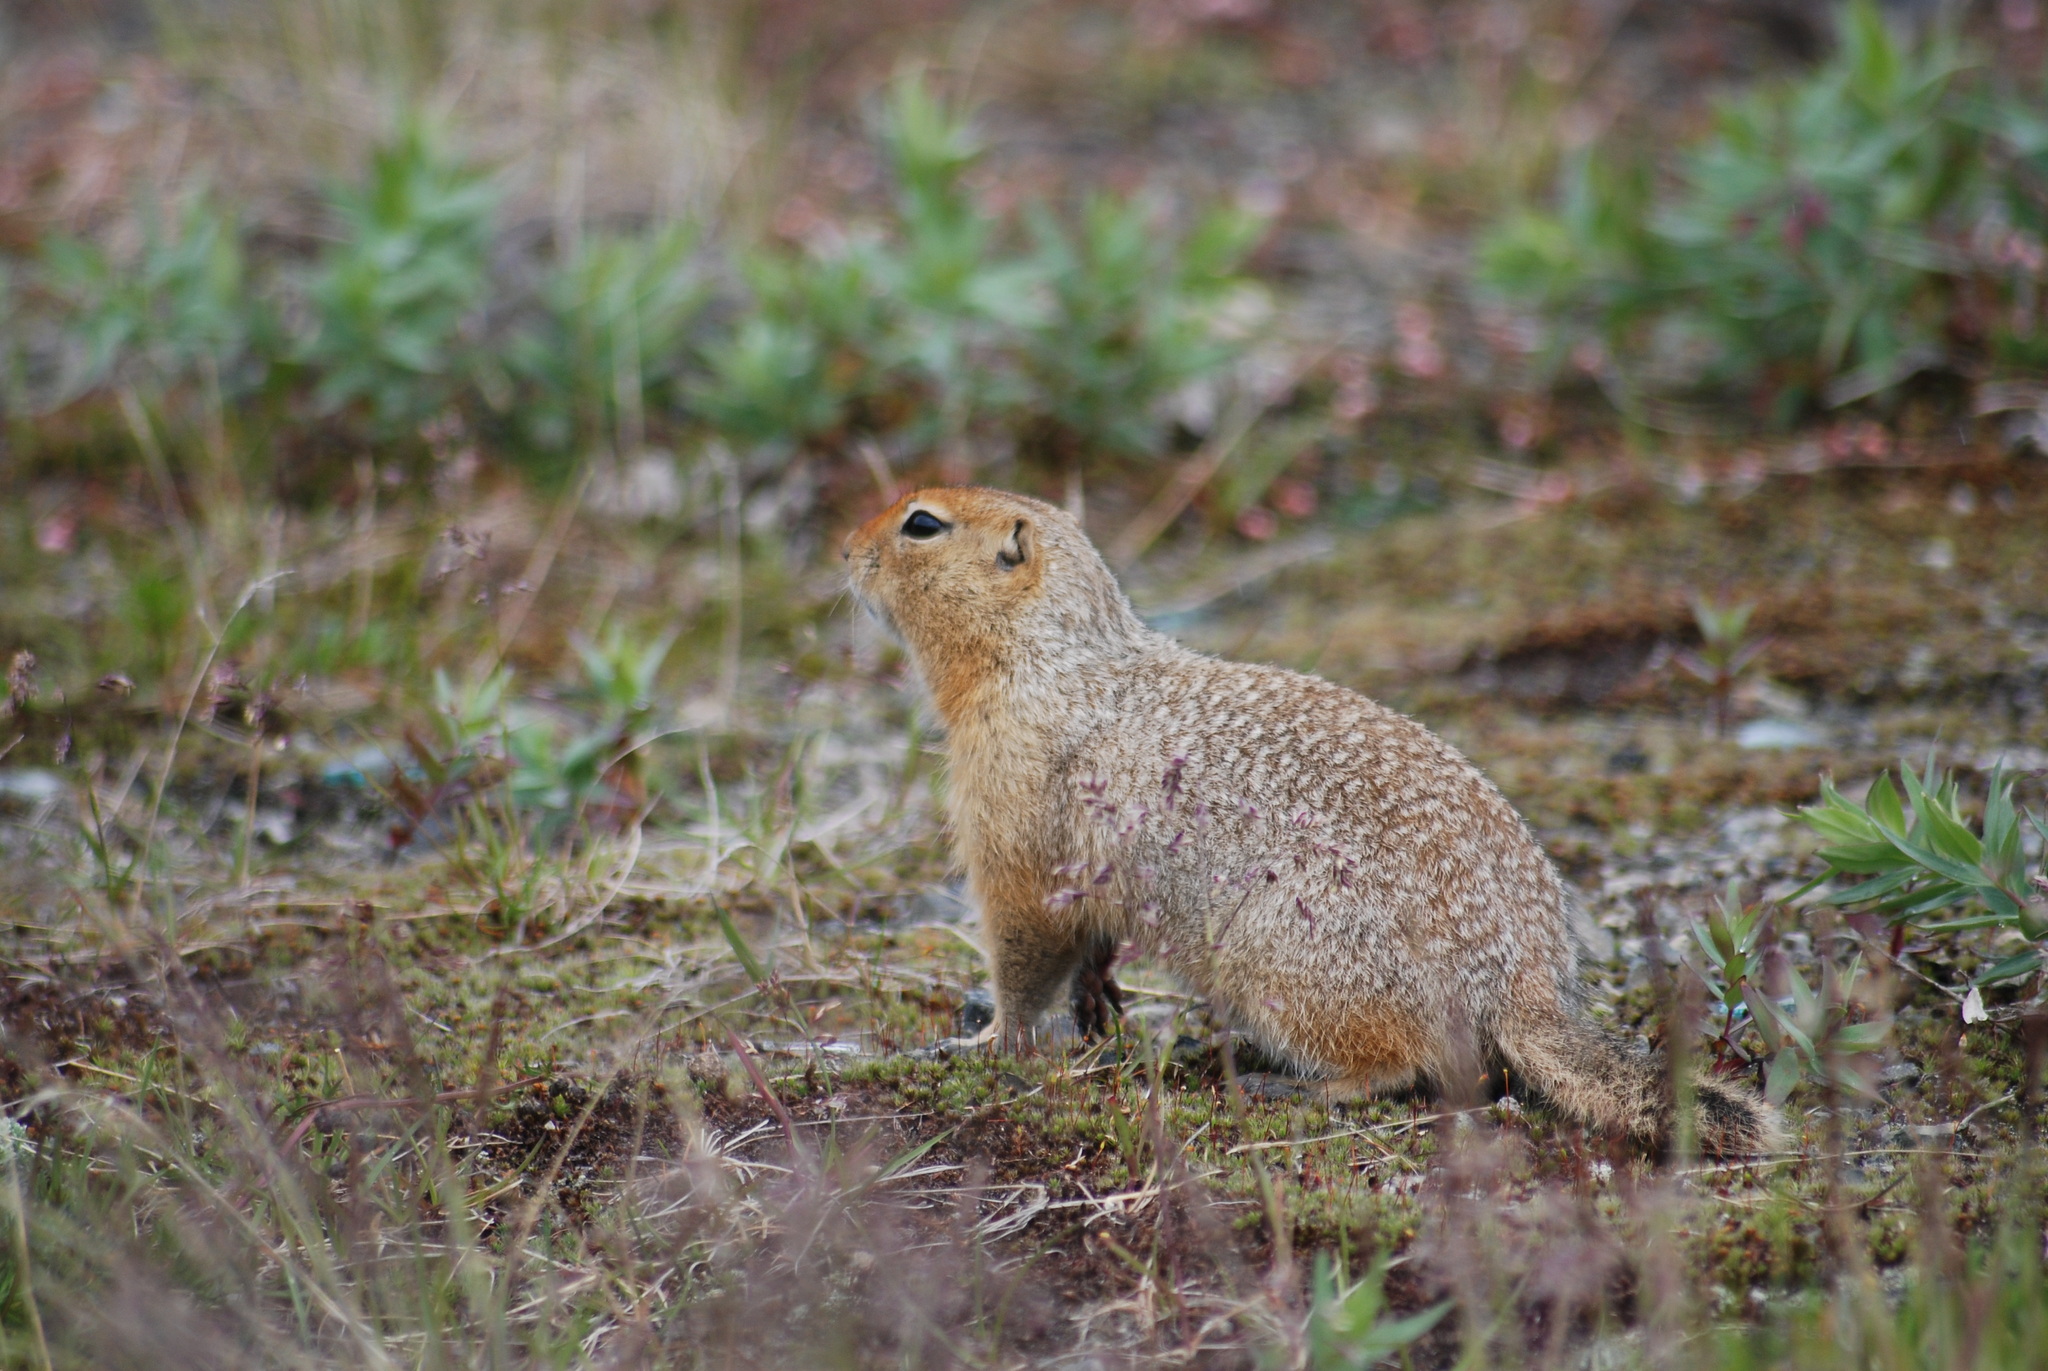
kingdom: Animalia
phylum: Chordata
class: Mammalia
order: Rodentia
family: Sciuridae
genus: Urocitellus
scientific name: Urocitellus parryii
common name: Arctic ground squirrel
